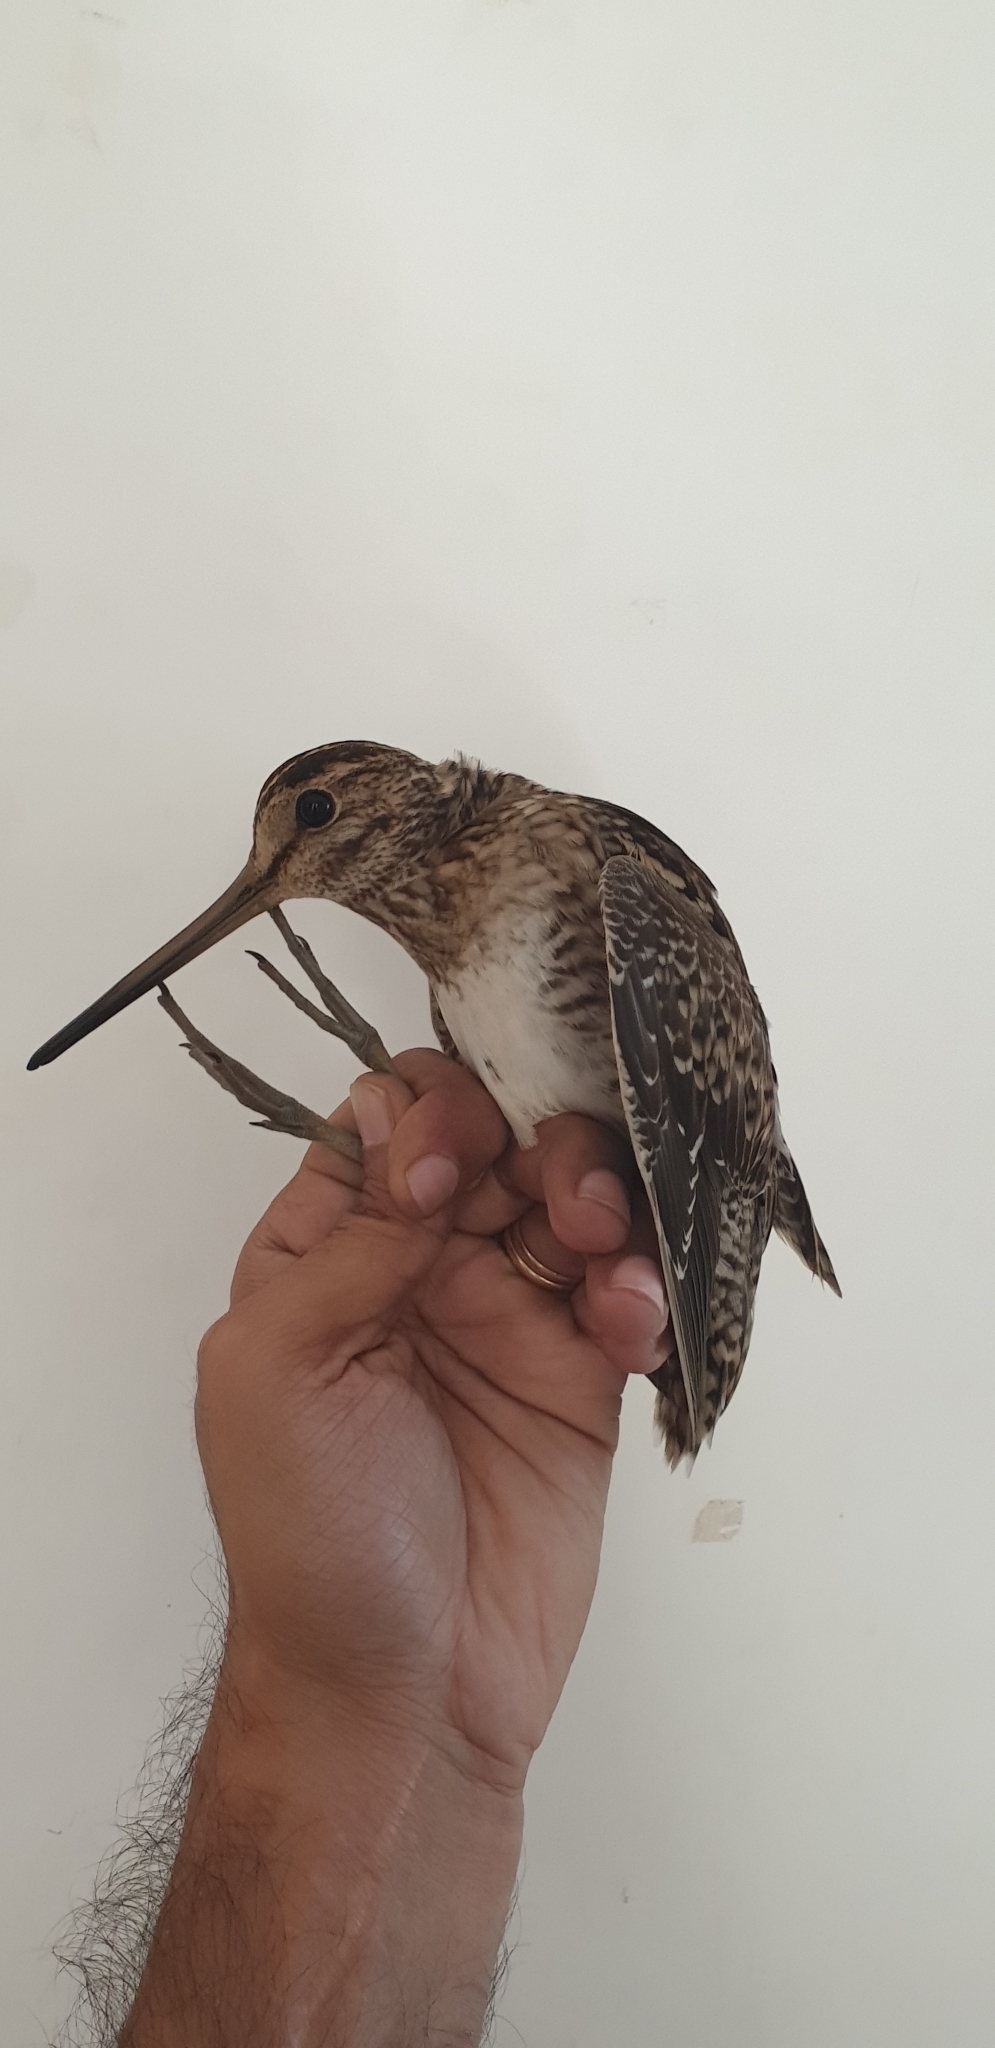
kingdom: Animalia
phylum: Chordata
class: Aves
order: Charadriiformes
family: Scolopacidae
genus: Gallinago
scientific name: Gallinago gallinago
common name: Common snipe
